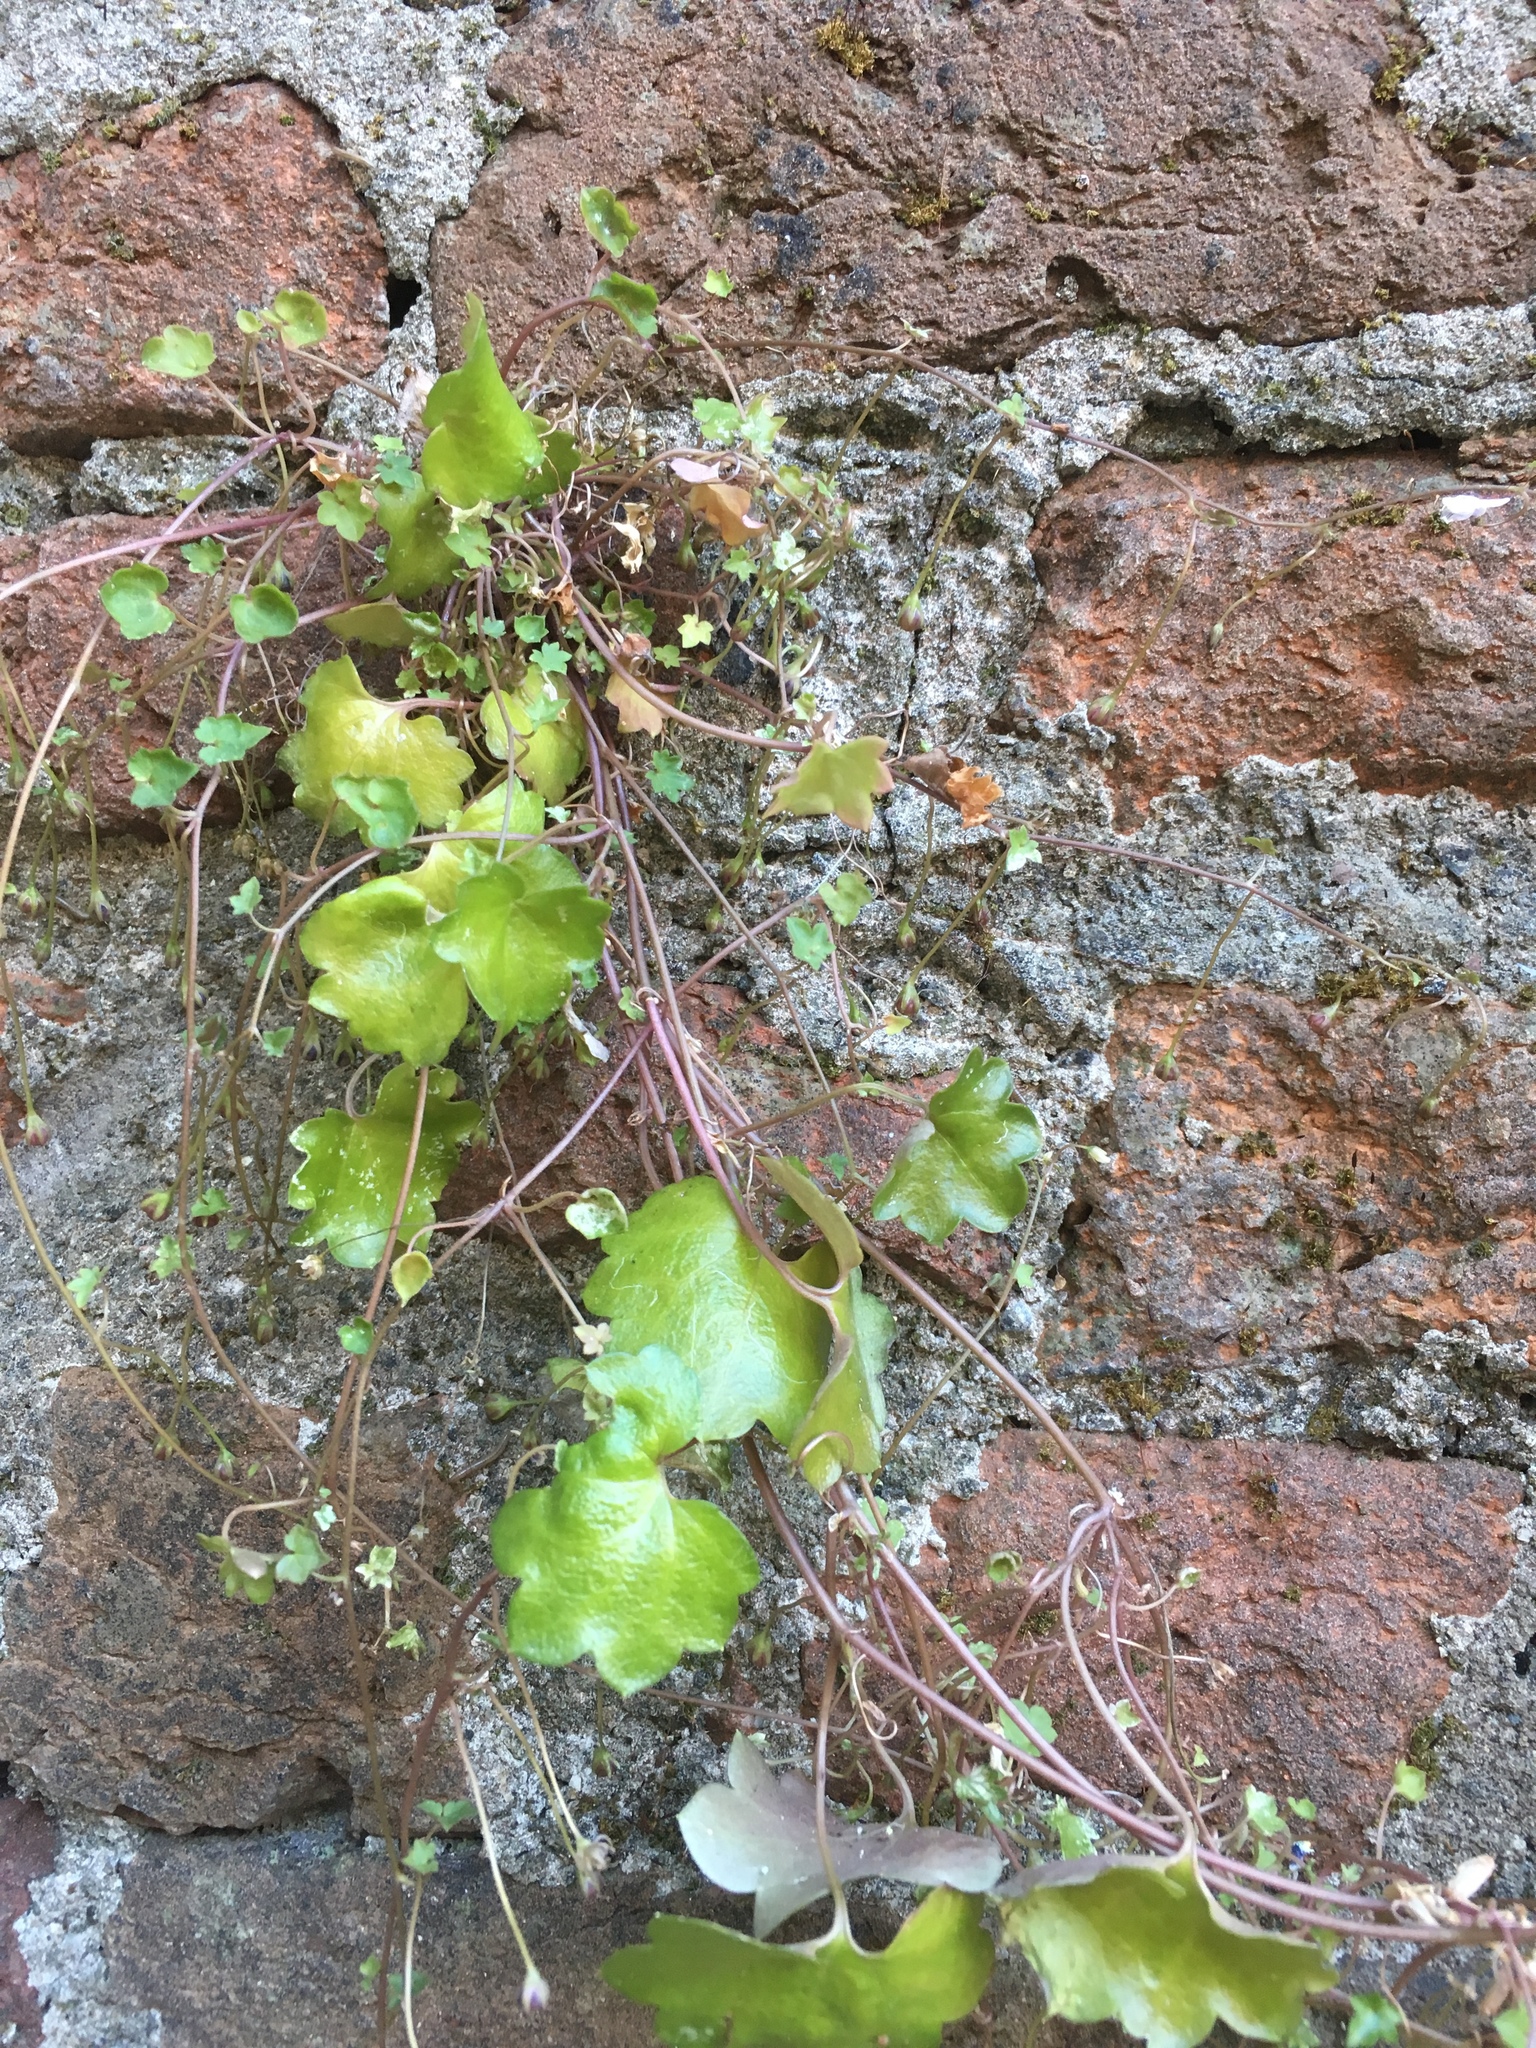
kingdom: Plantae
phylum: Tracheophyta
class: Magnoliopsida
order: Lamiales
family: Plantaginaceae
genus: Cymbalaria
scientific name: Cymbalaria muralis
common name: Ivy-leaved toadflax
